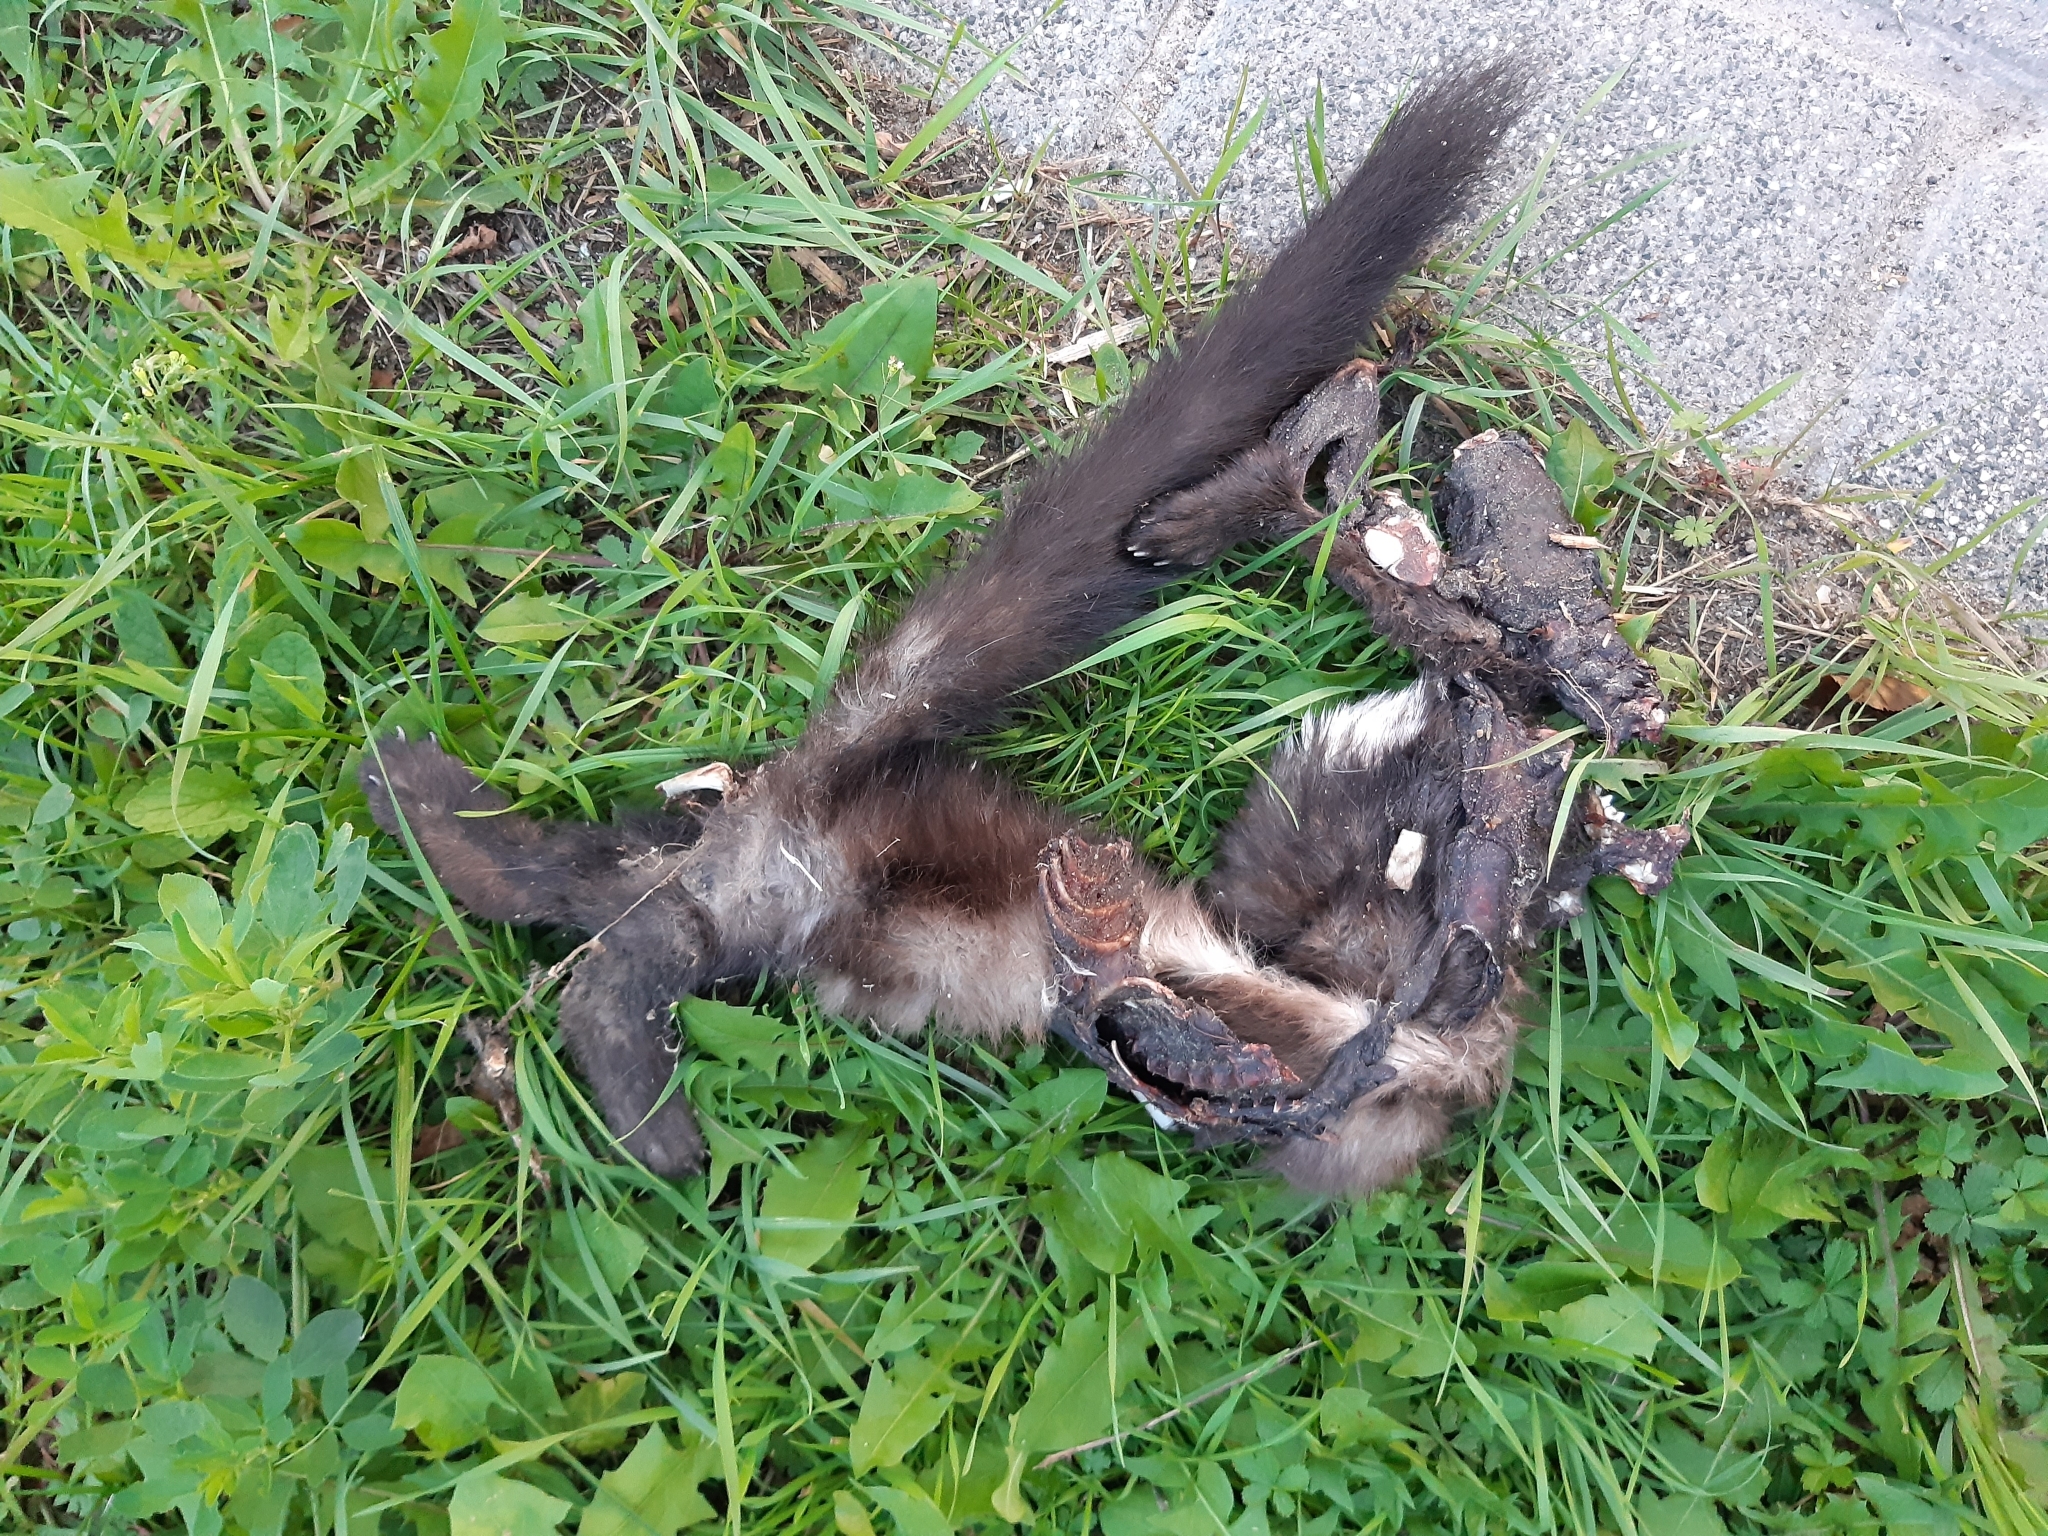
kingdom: Animalia
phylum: Chordata
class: Mammalia
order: Carnivora
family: Mustelidae
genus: Martes
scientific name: Martes foina
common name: Beech marten
